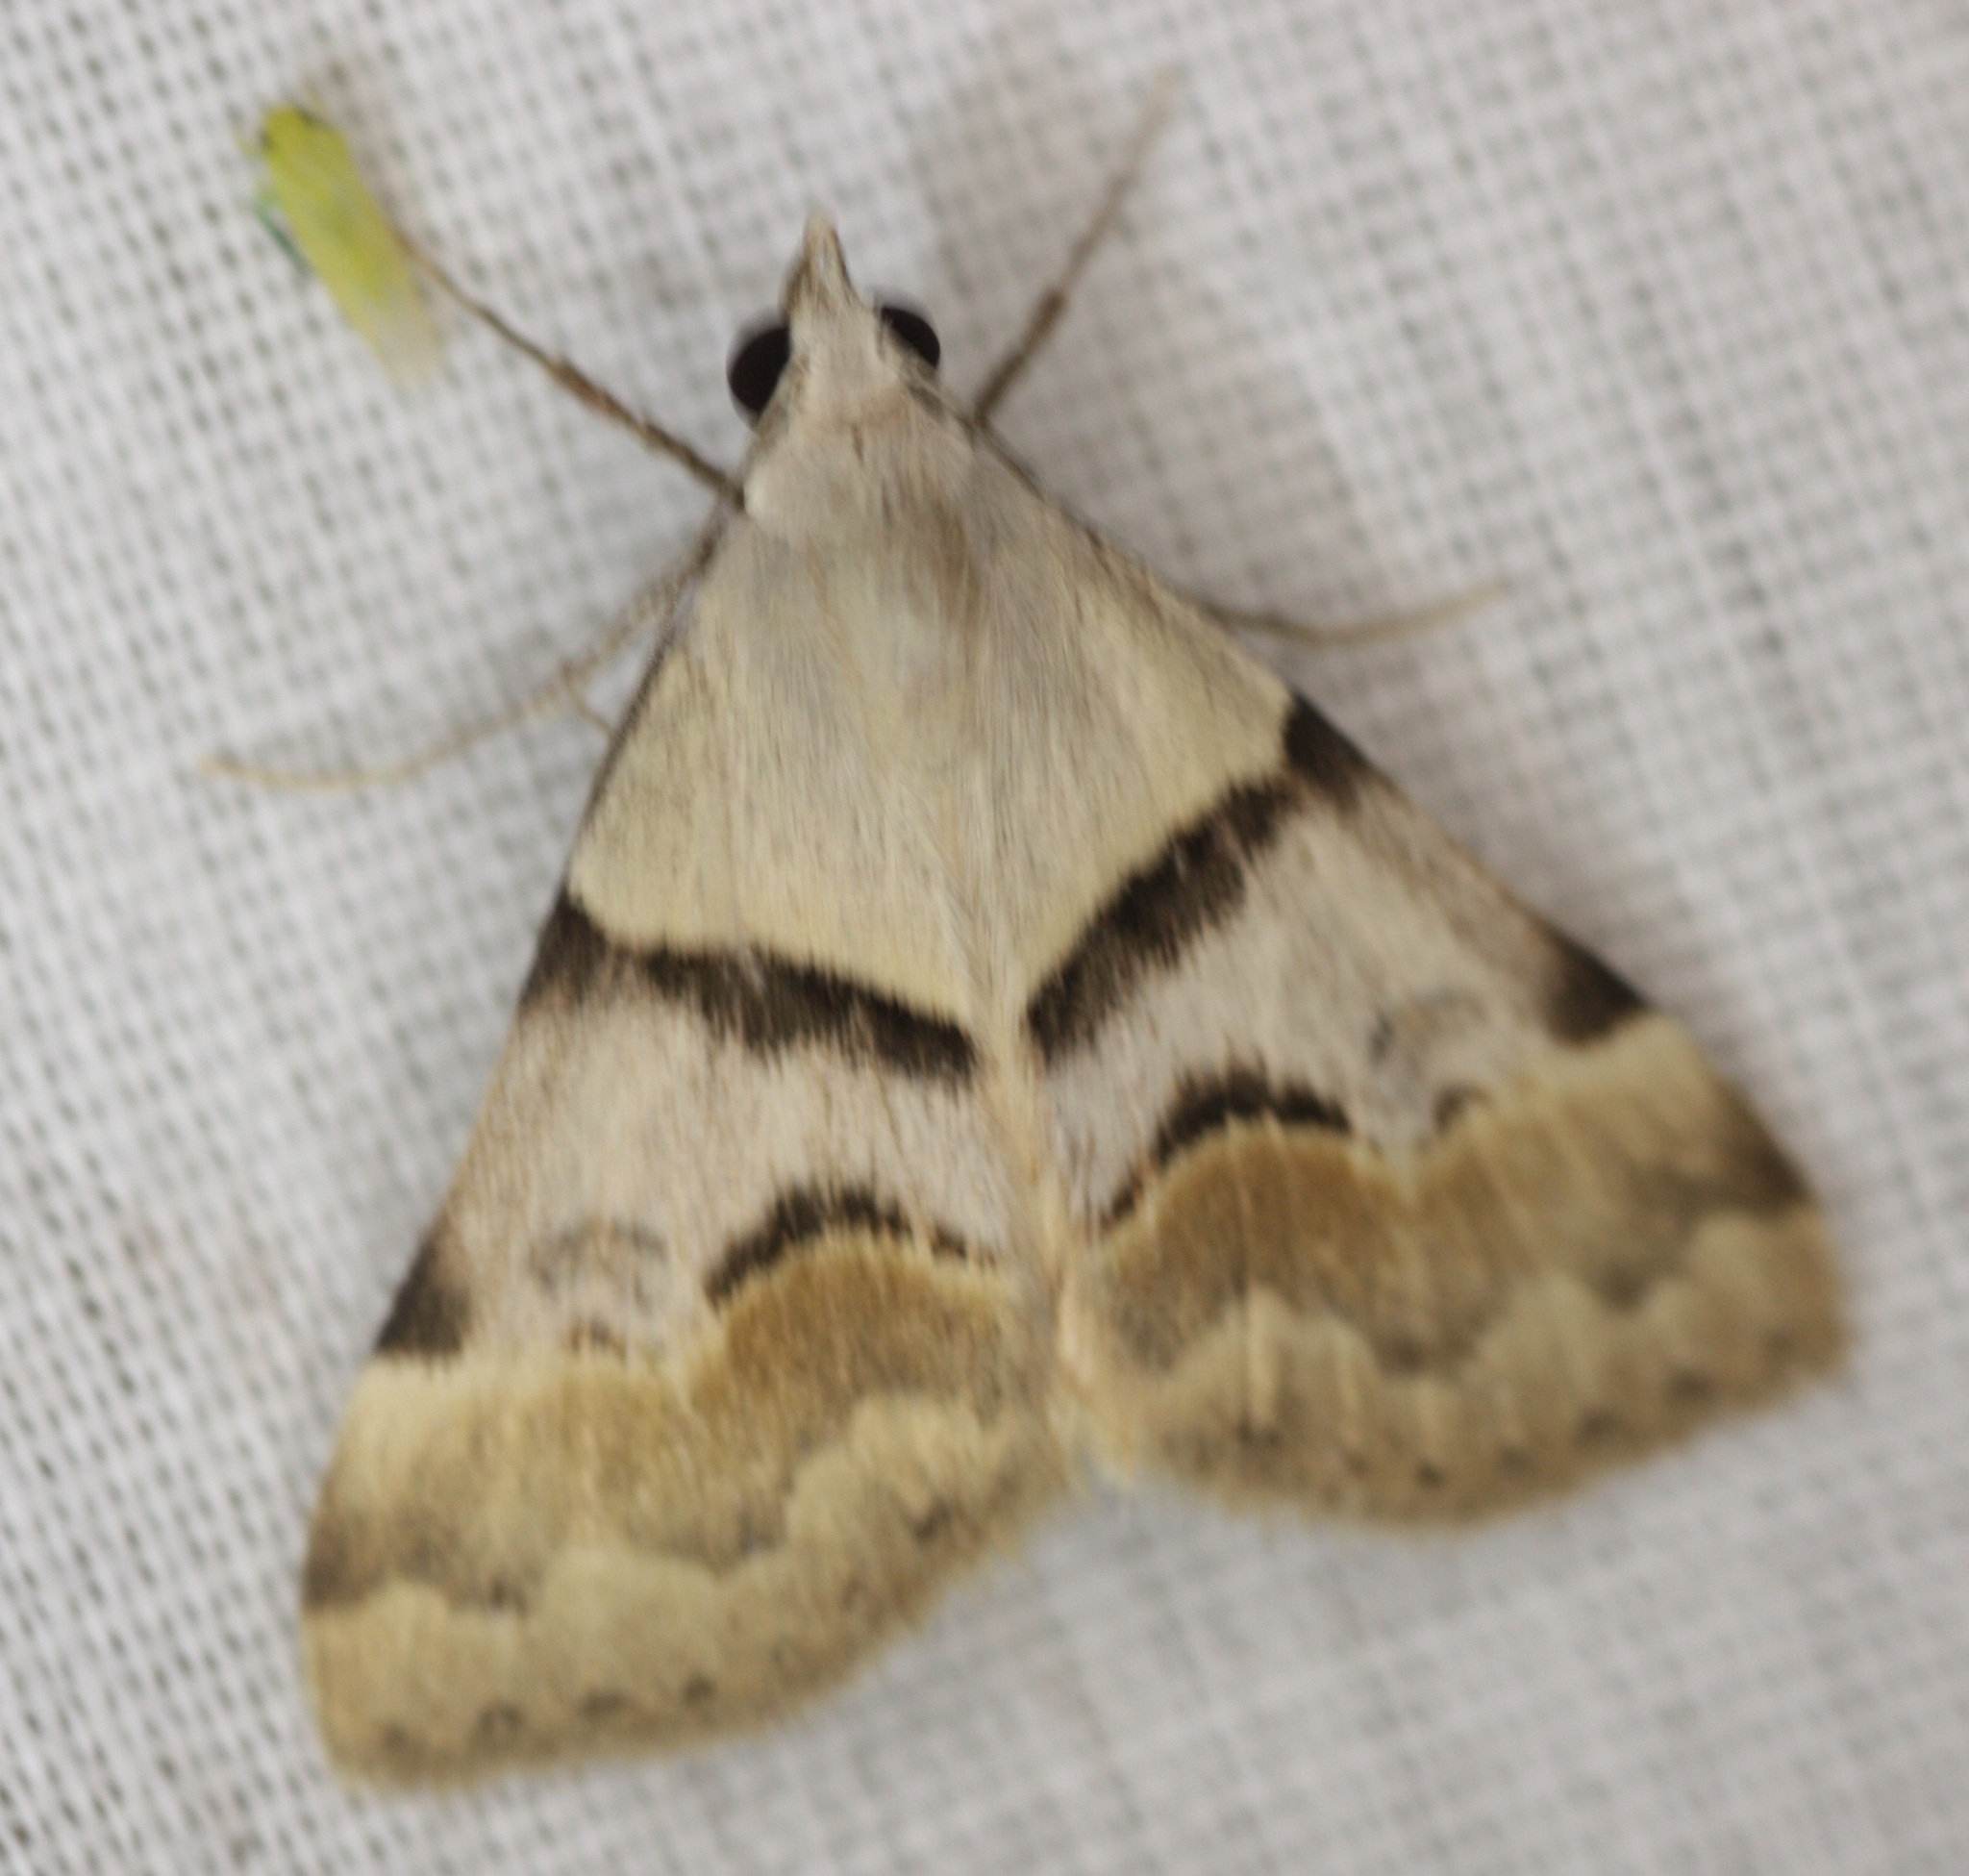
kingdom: Animalia
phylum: Arthropoda
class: Insecta
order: Lepidoptera
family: Erebidae
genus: Hemeroplanis
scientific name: Hemeroplanis incusalis
